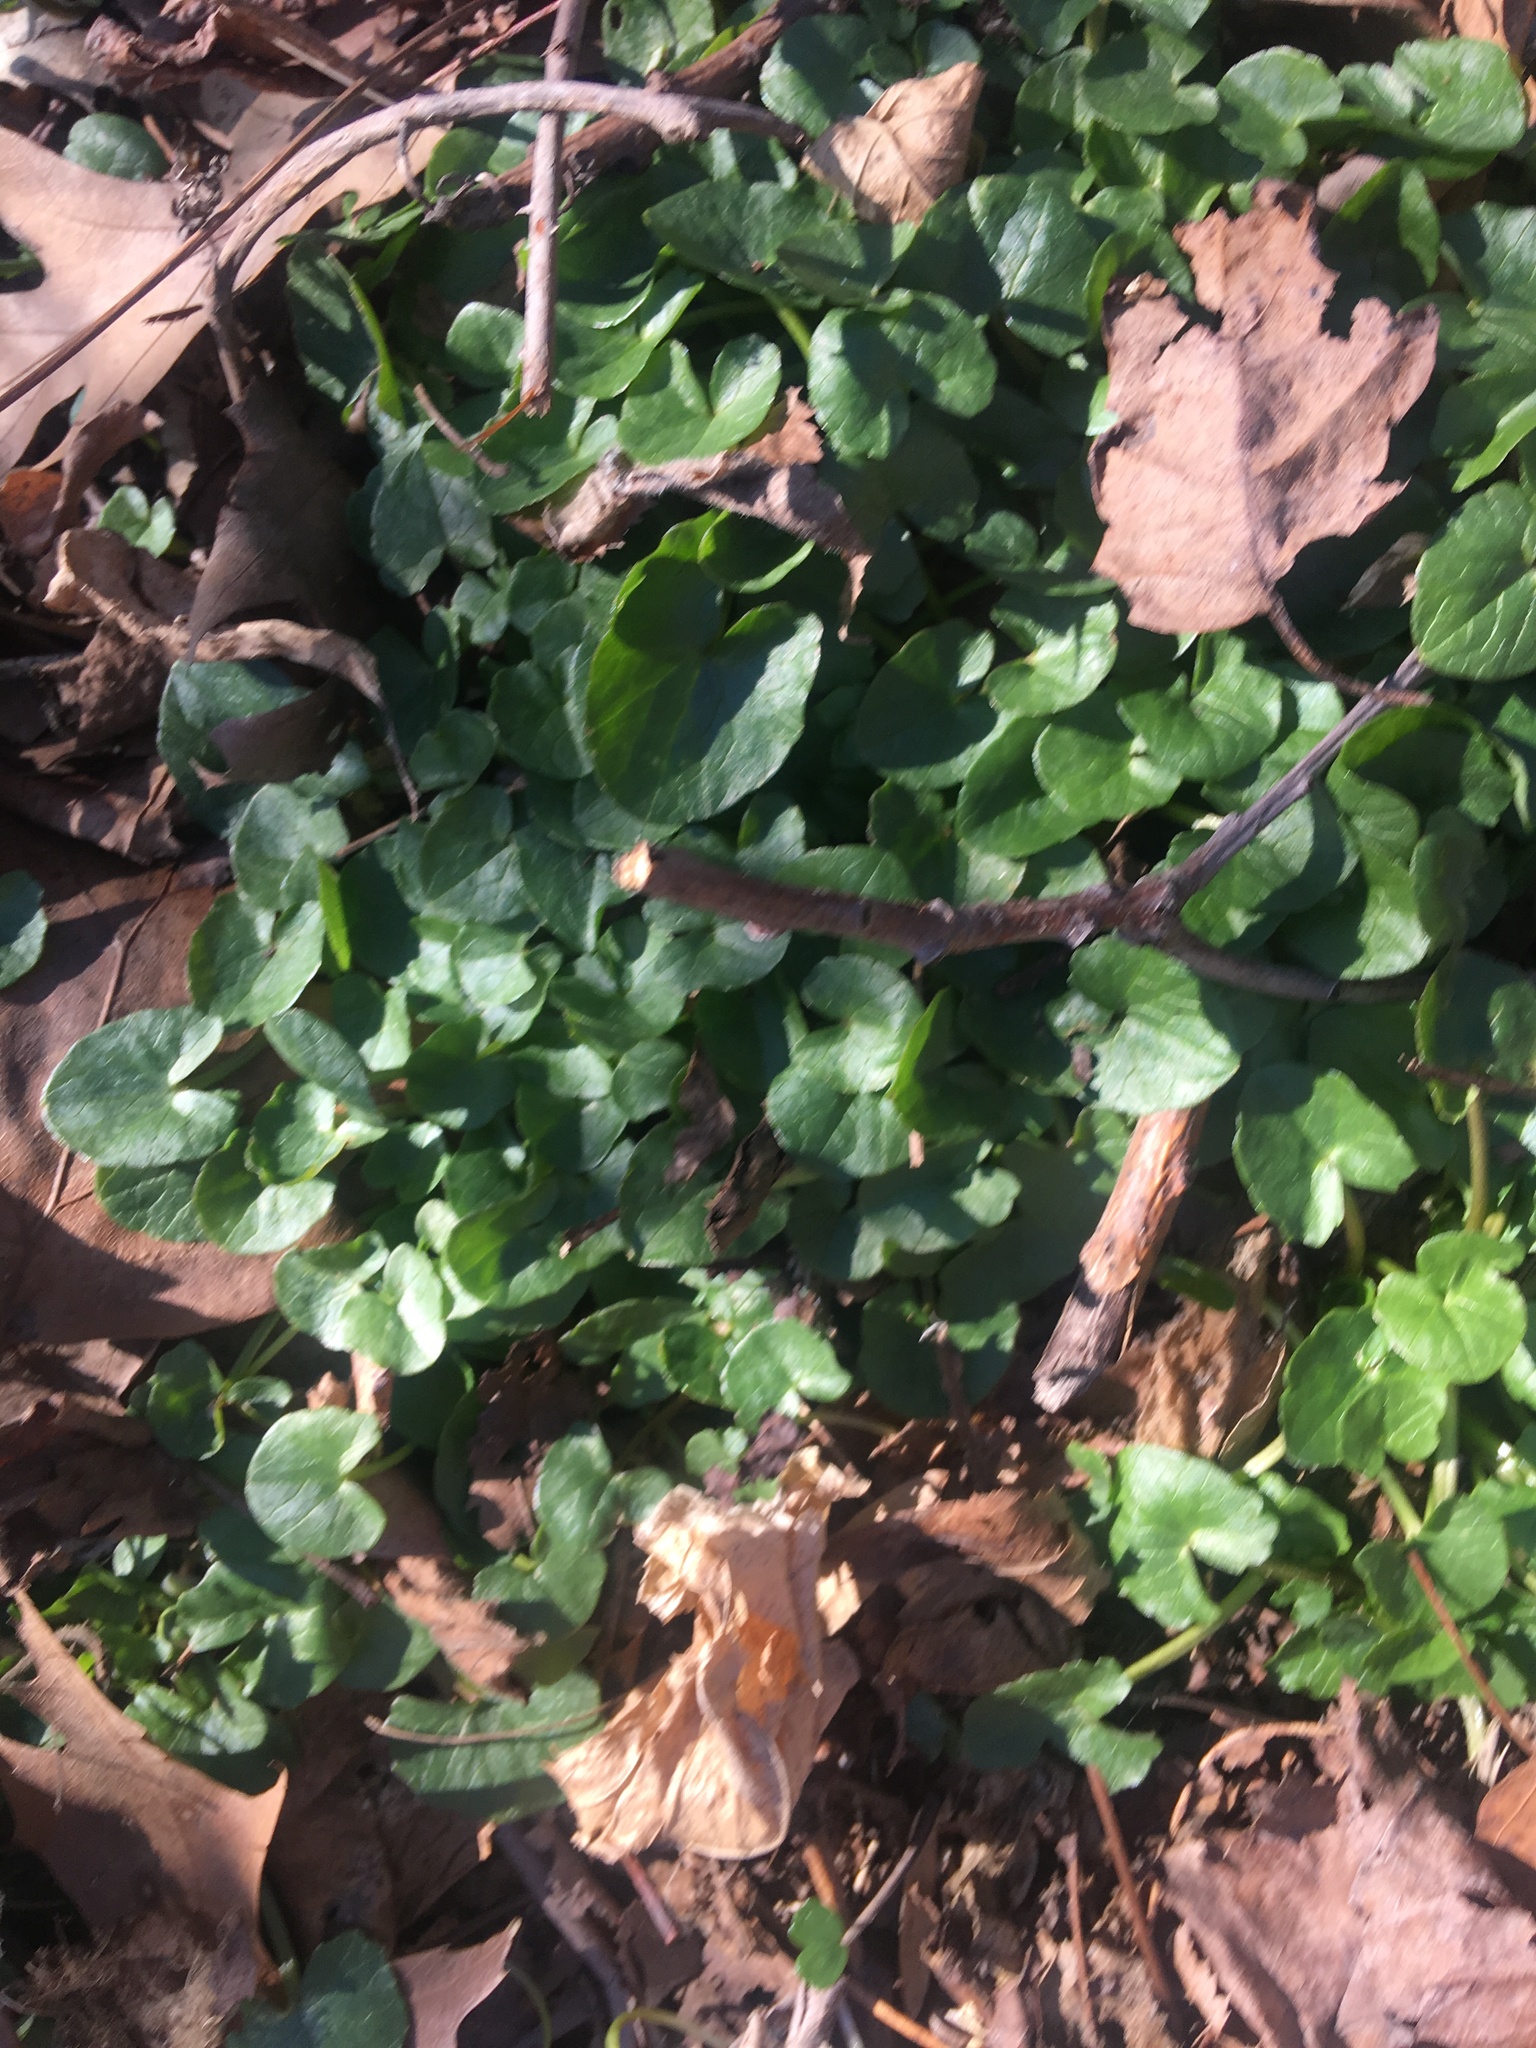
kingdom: Plantae
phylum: Tracheophyta
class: Magnoliopsida
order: Ranunculales
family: Ranunculaceae
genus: Ficaria
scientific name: Ficaria verna
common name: Lesser celandine
